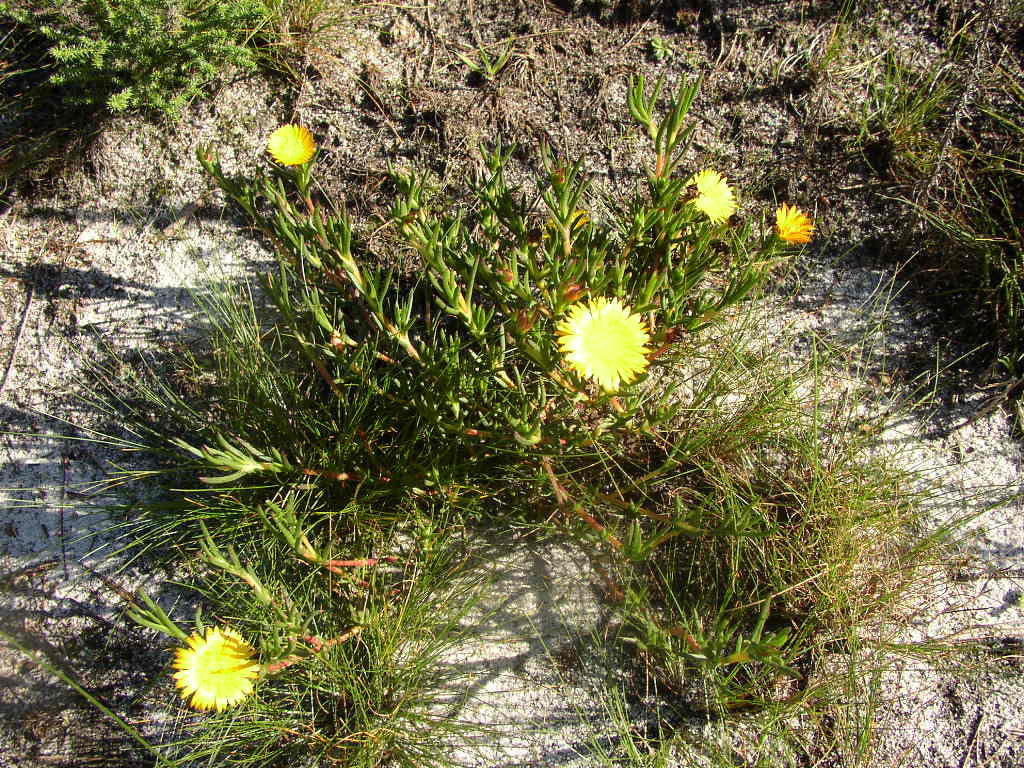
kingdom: Plantae
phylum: Tracheophyta
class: Magnoliopsida
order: Caryophyllales
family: Aizoaceae
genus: Lampranthus
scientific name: Lampranthus bicolor
